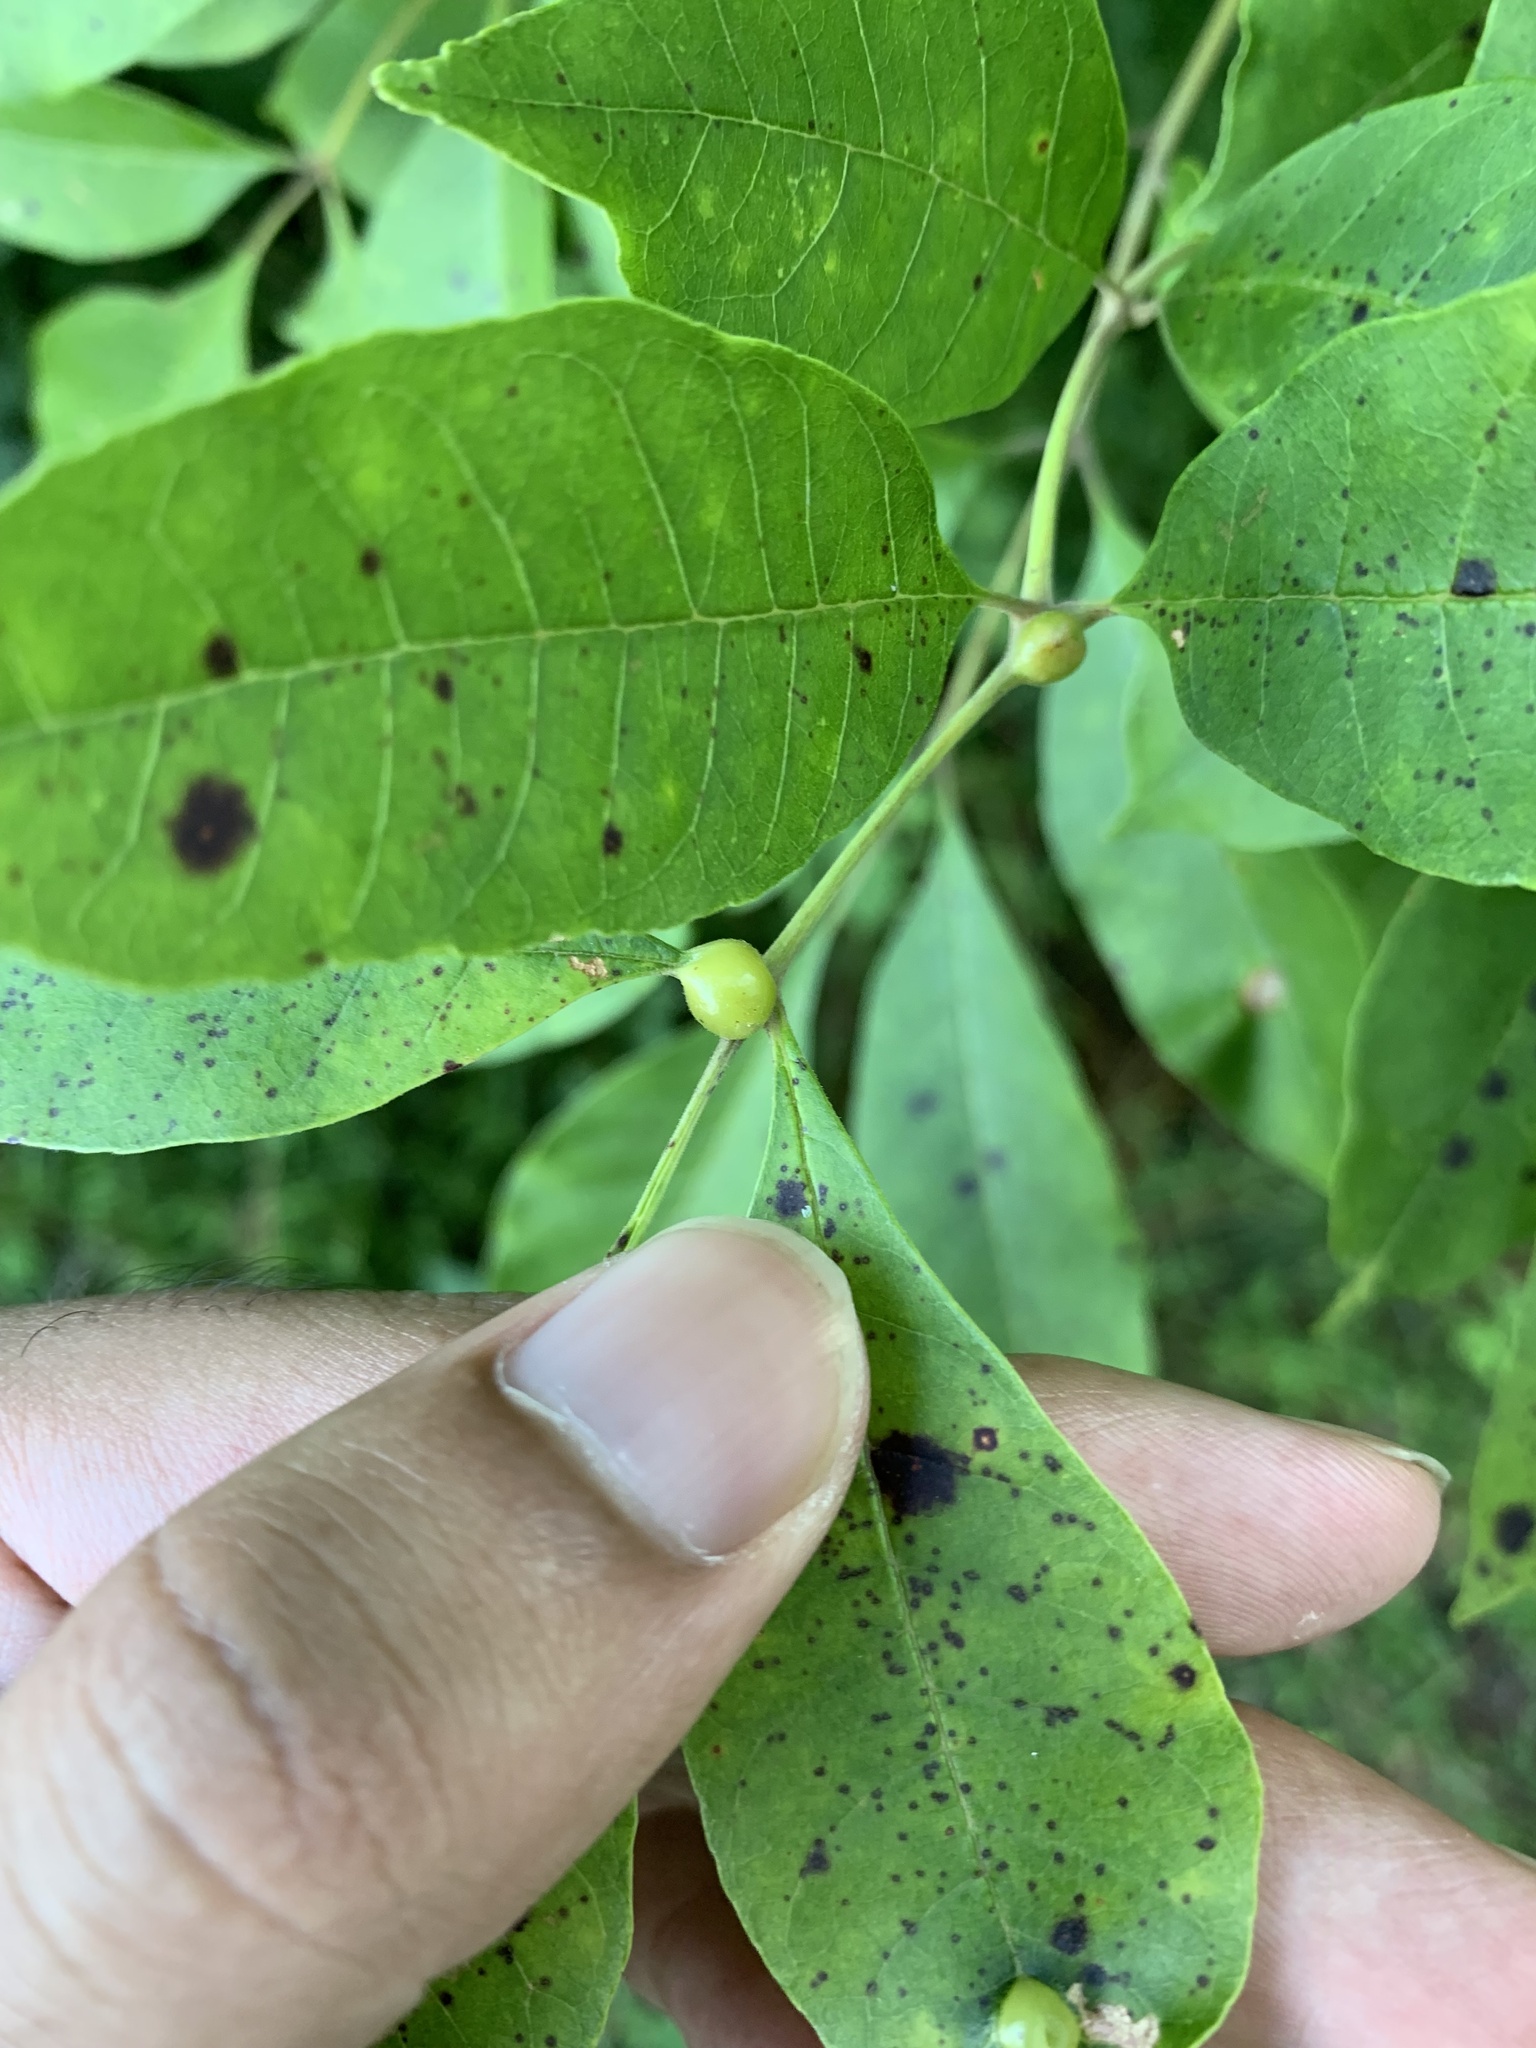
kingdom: Animalia
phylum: Arthropoda
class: Insecta
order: Diptera
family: Cecidomyiidae
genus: Dasineura
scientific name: Dasineura pellex
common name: Ash bullet gall midge
